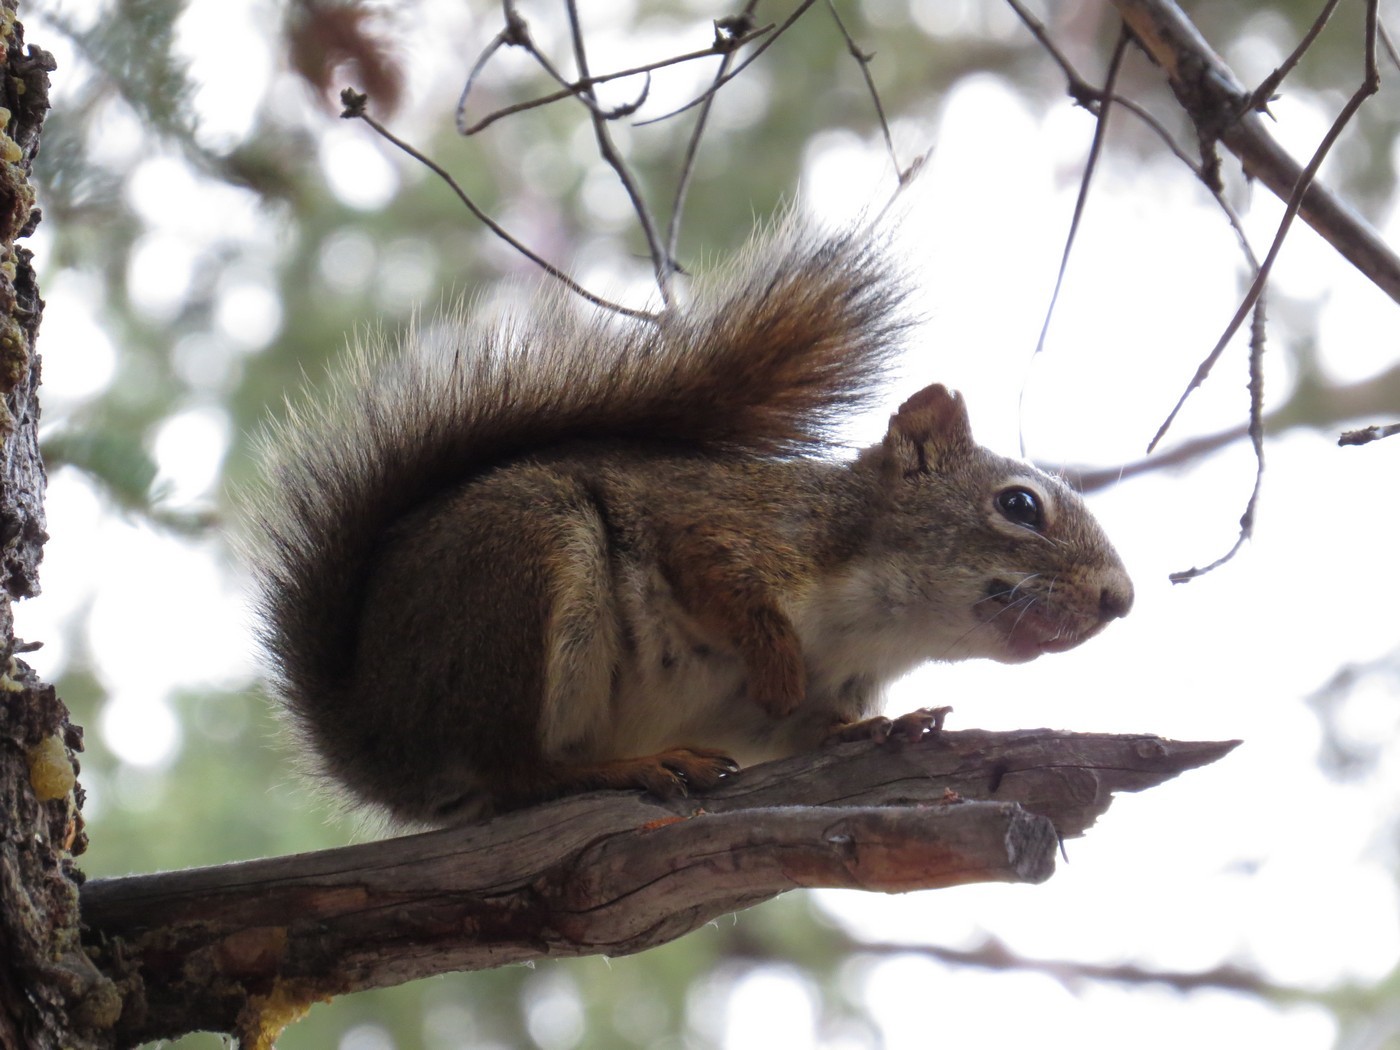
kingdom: Animalia
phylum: Chordata
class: Mammalia
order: Rodentia
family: Sciuridae
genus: Tamiasciurus
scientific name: Tamiasciurus hudsonicus
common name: Red squirrel
